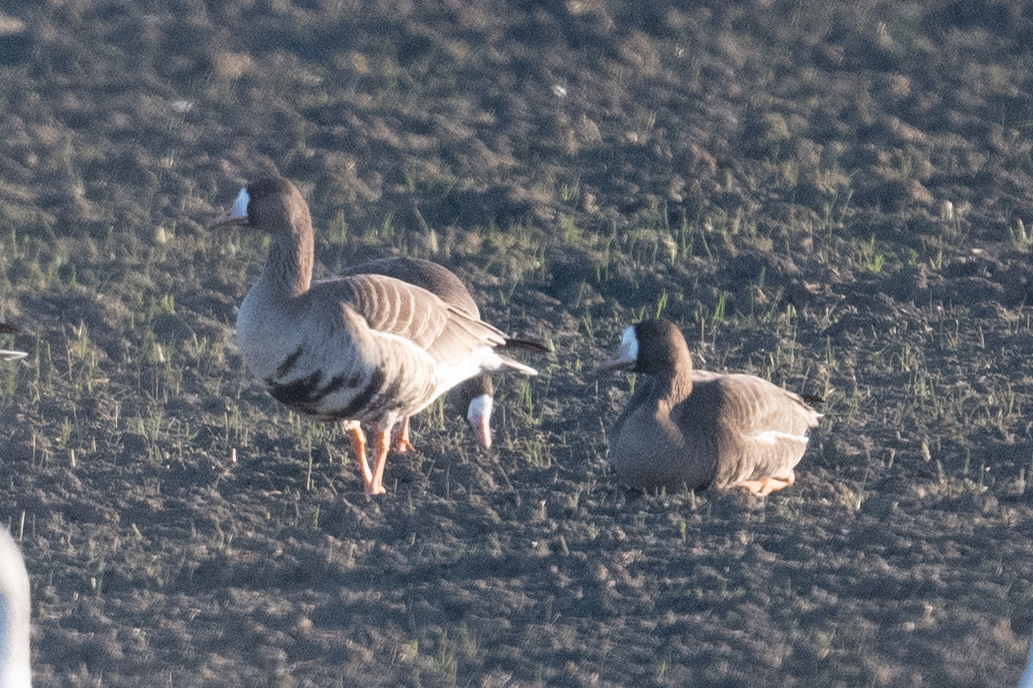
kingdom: Animalia
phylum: Chordata
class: Aves
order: Anseriformes
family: Anatidae
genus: Anser
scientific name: Anser albifrons
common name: Greater white-fronted goose
